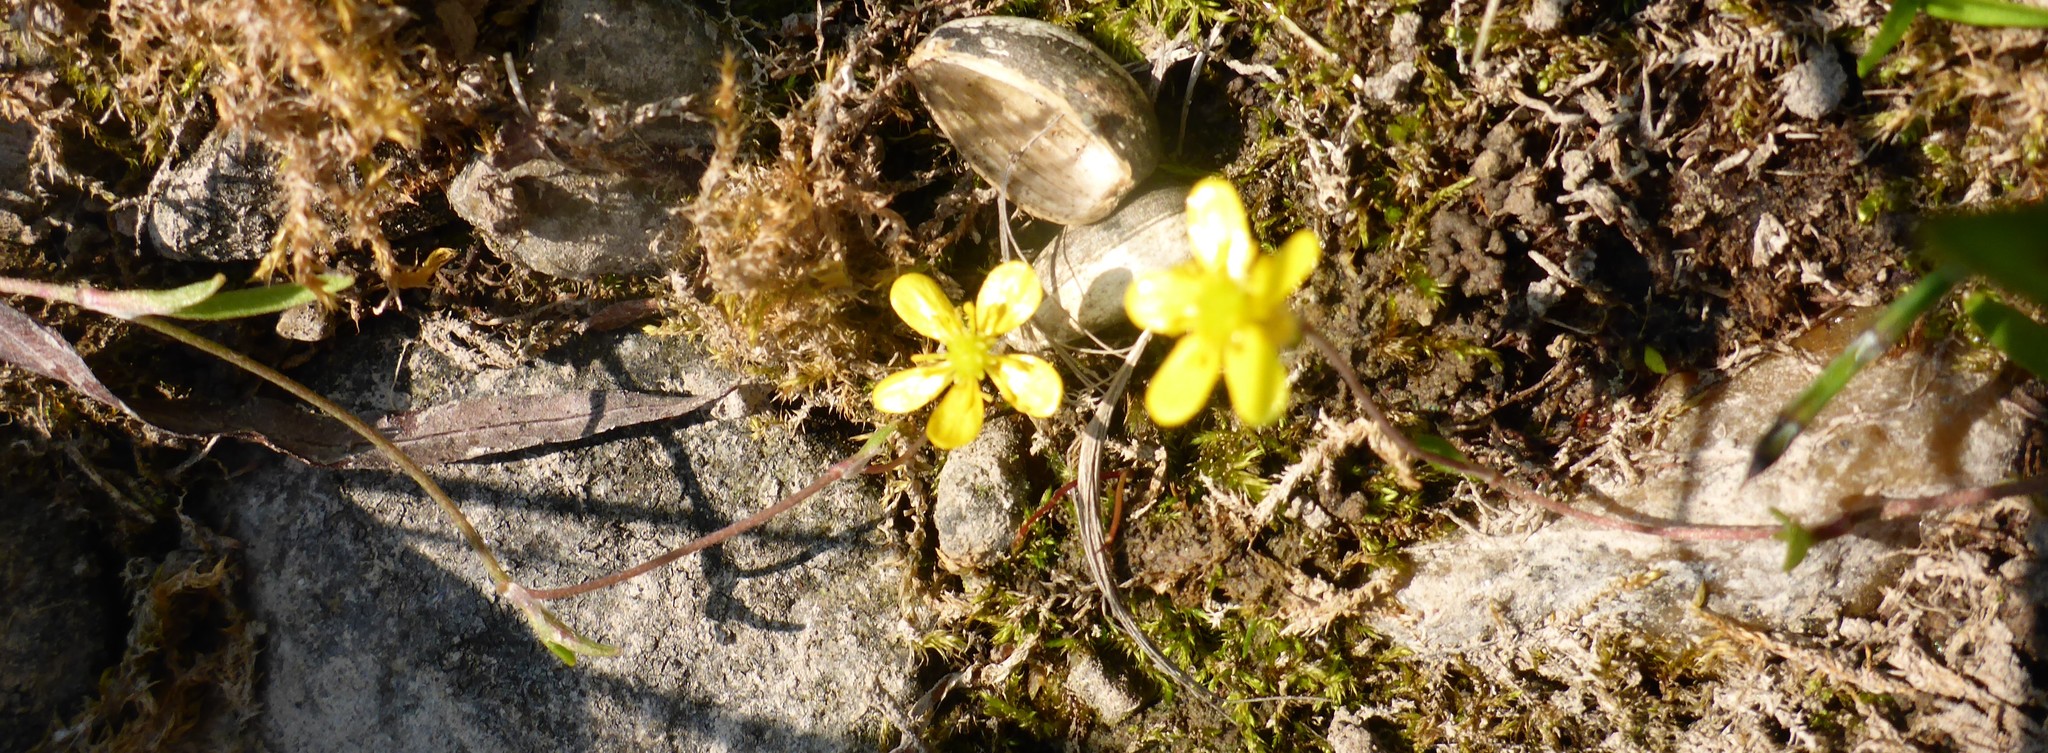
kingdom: Plantae
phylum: Tracheophyta
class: Magnoliopsida
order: Ranunculales
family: Ranunculaceae
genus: Ranunculus
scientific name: Ranunculus flammula
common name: Lesser spearwort
